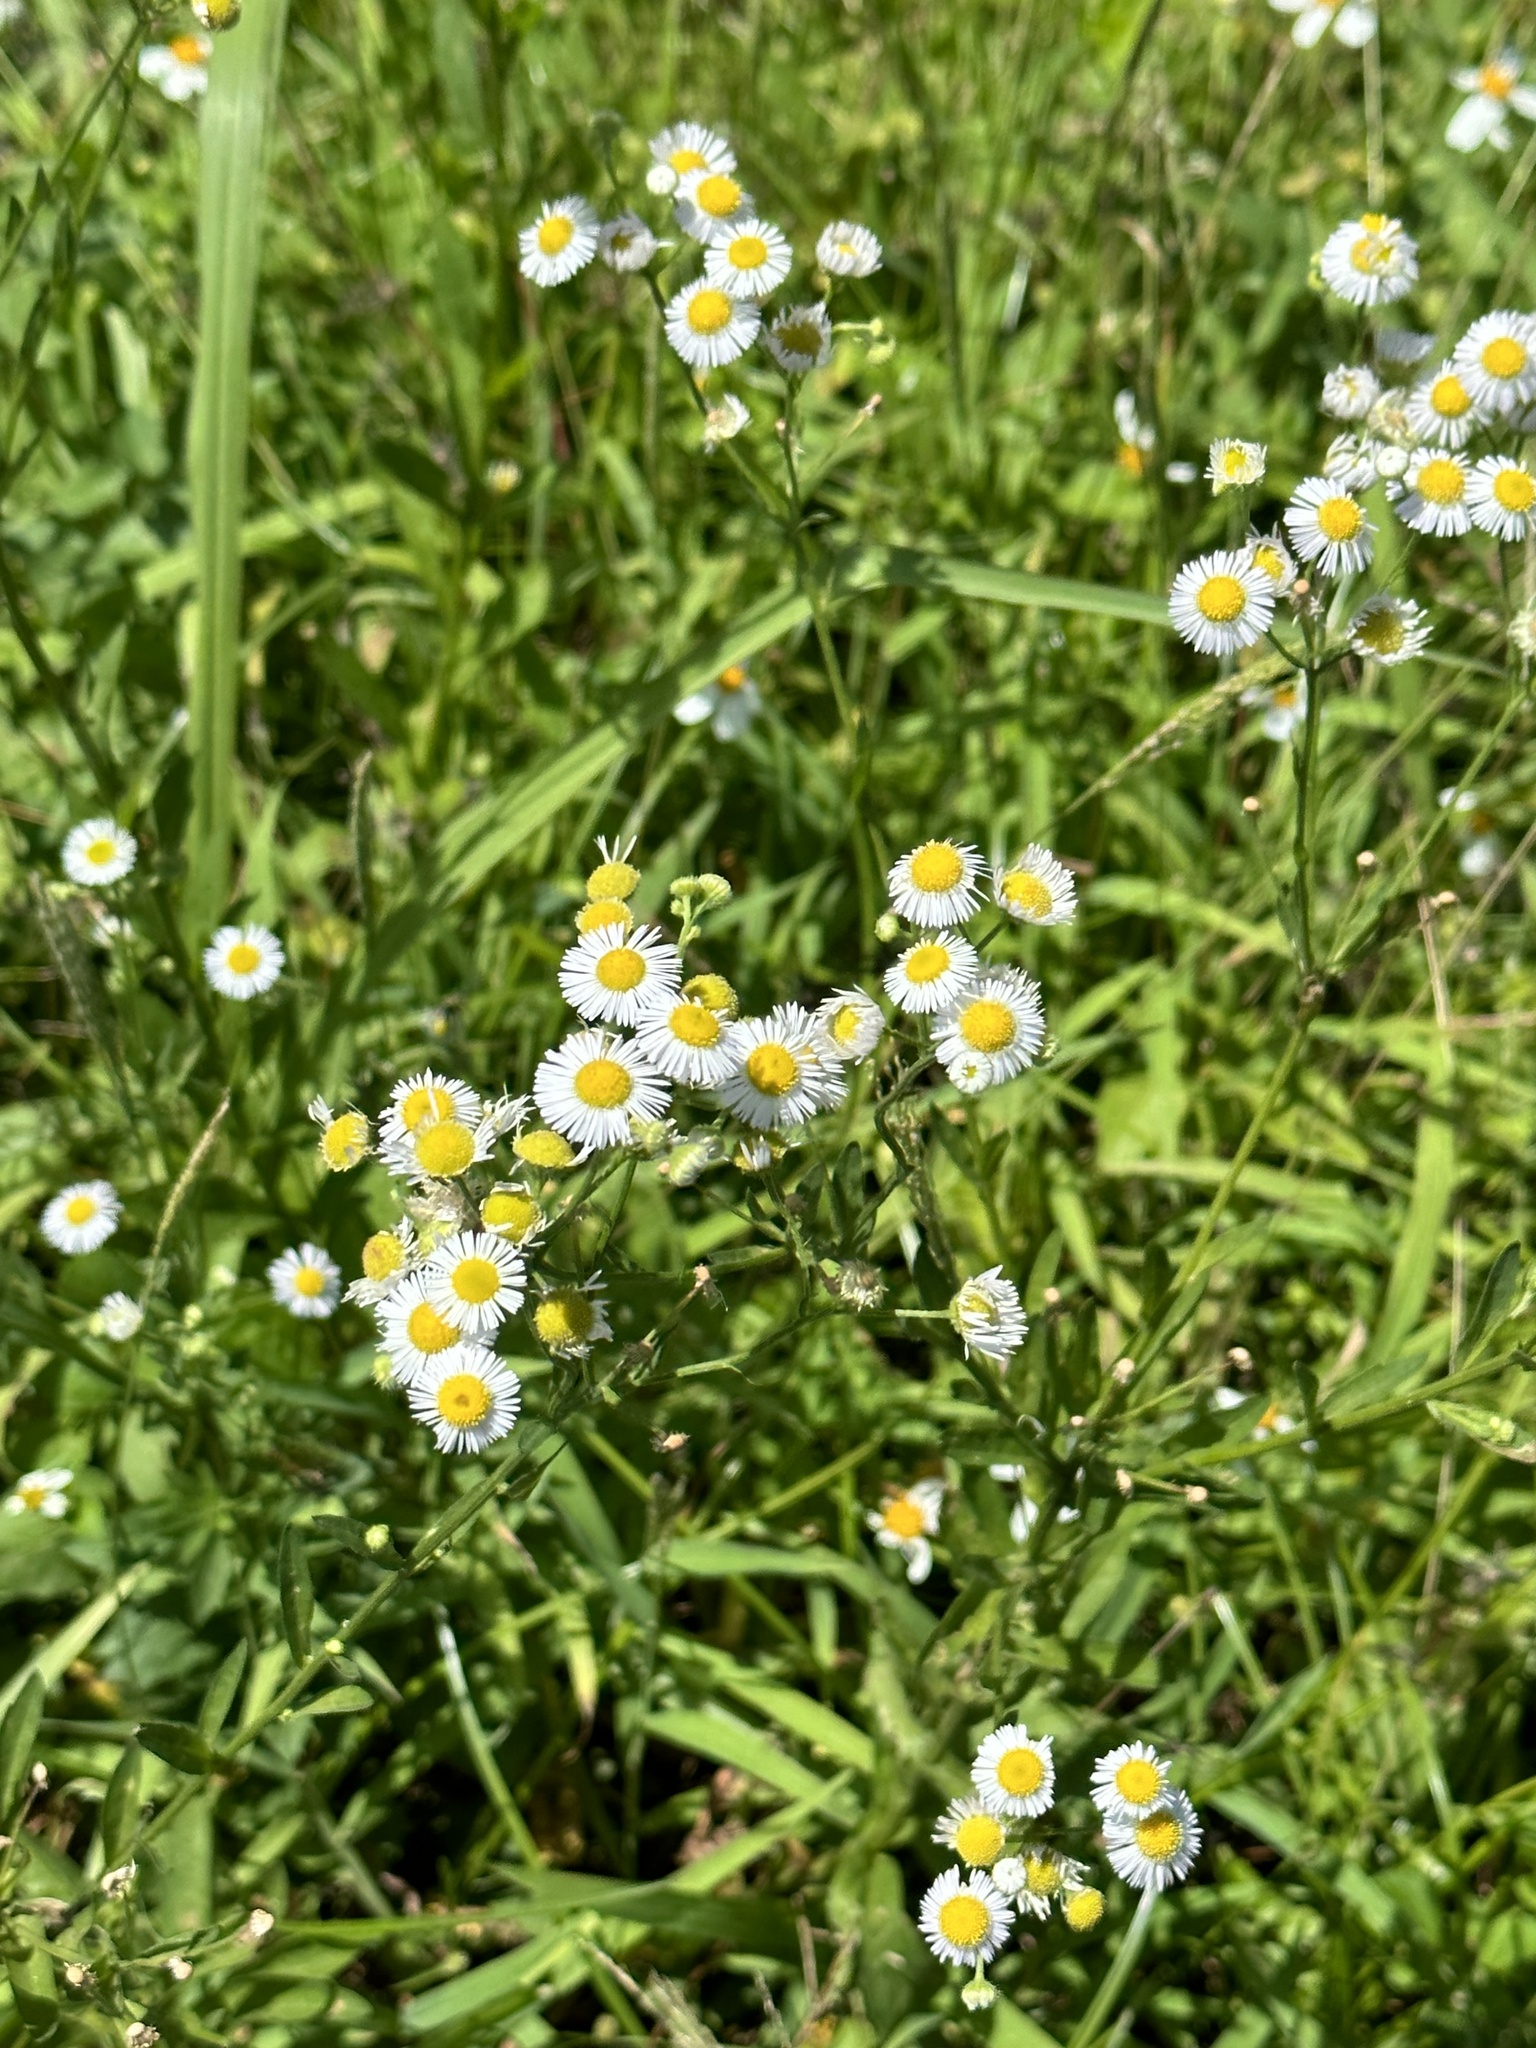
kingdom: Plantae
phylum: Tracheophyta
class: Magnoliopsida
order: Asterales
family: Asteraceae
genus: Erigeron
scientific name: Erigeron annuus
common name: Tall fleabane
